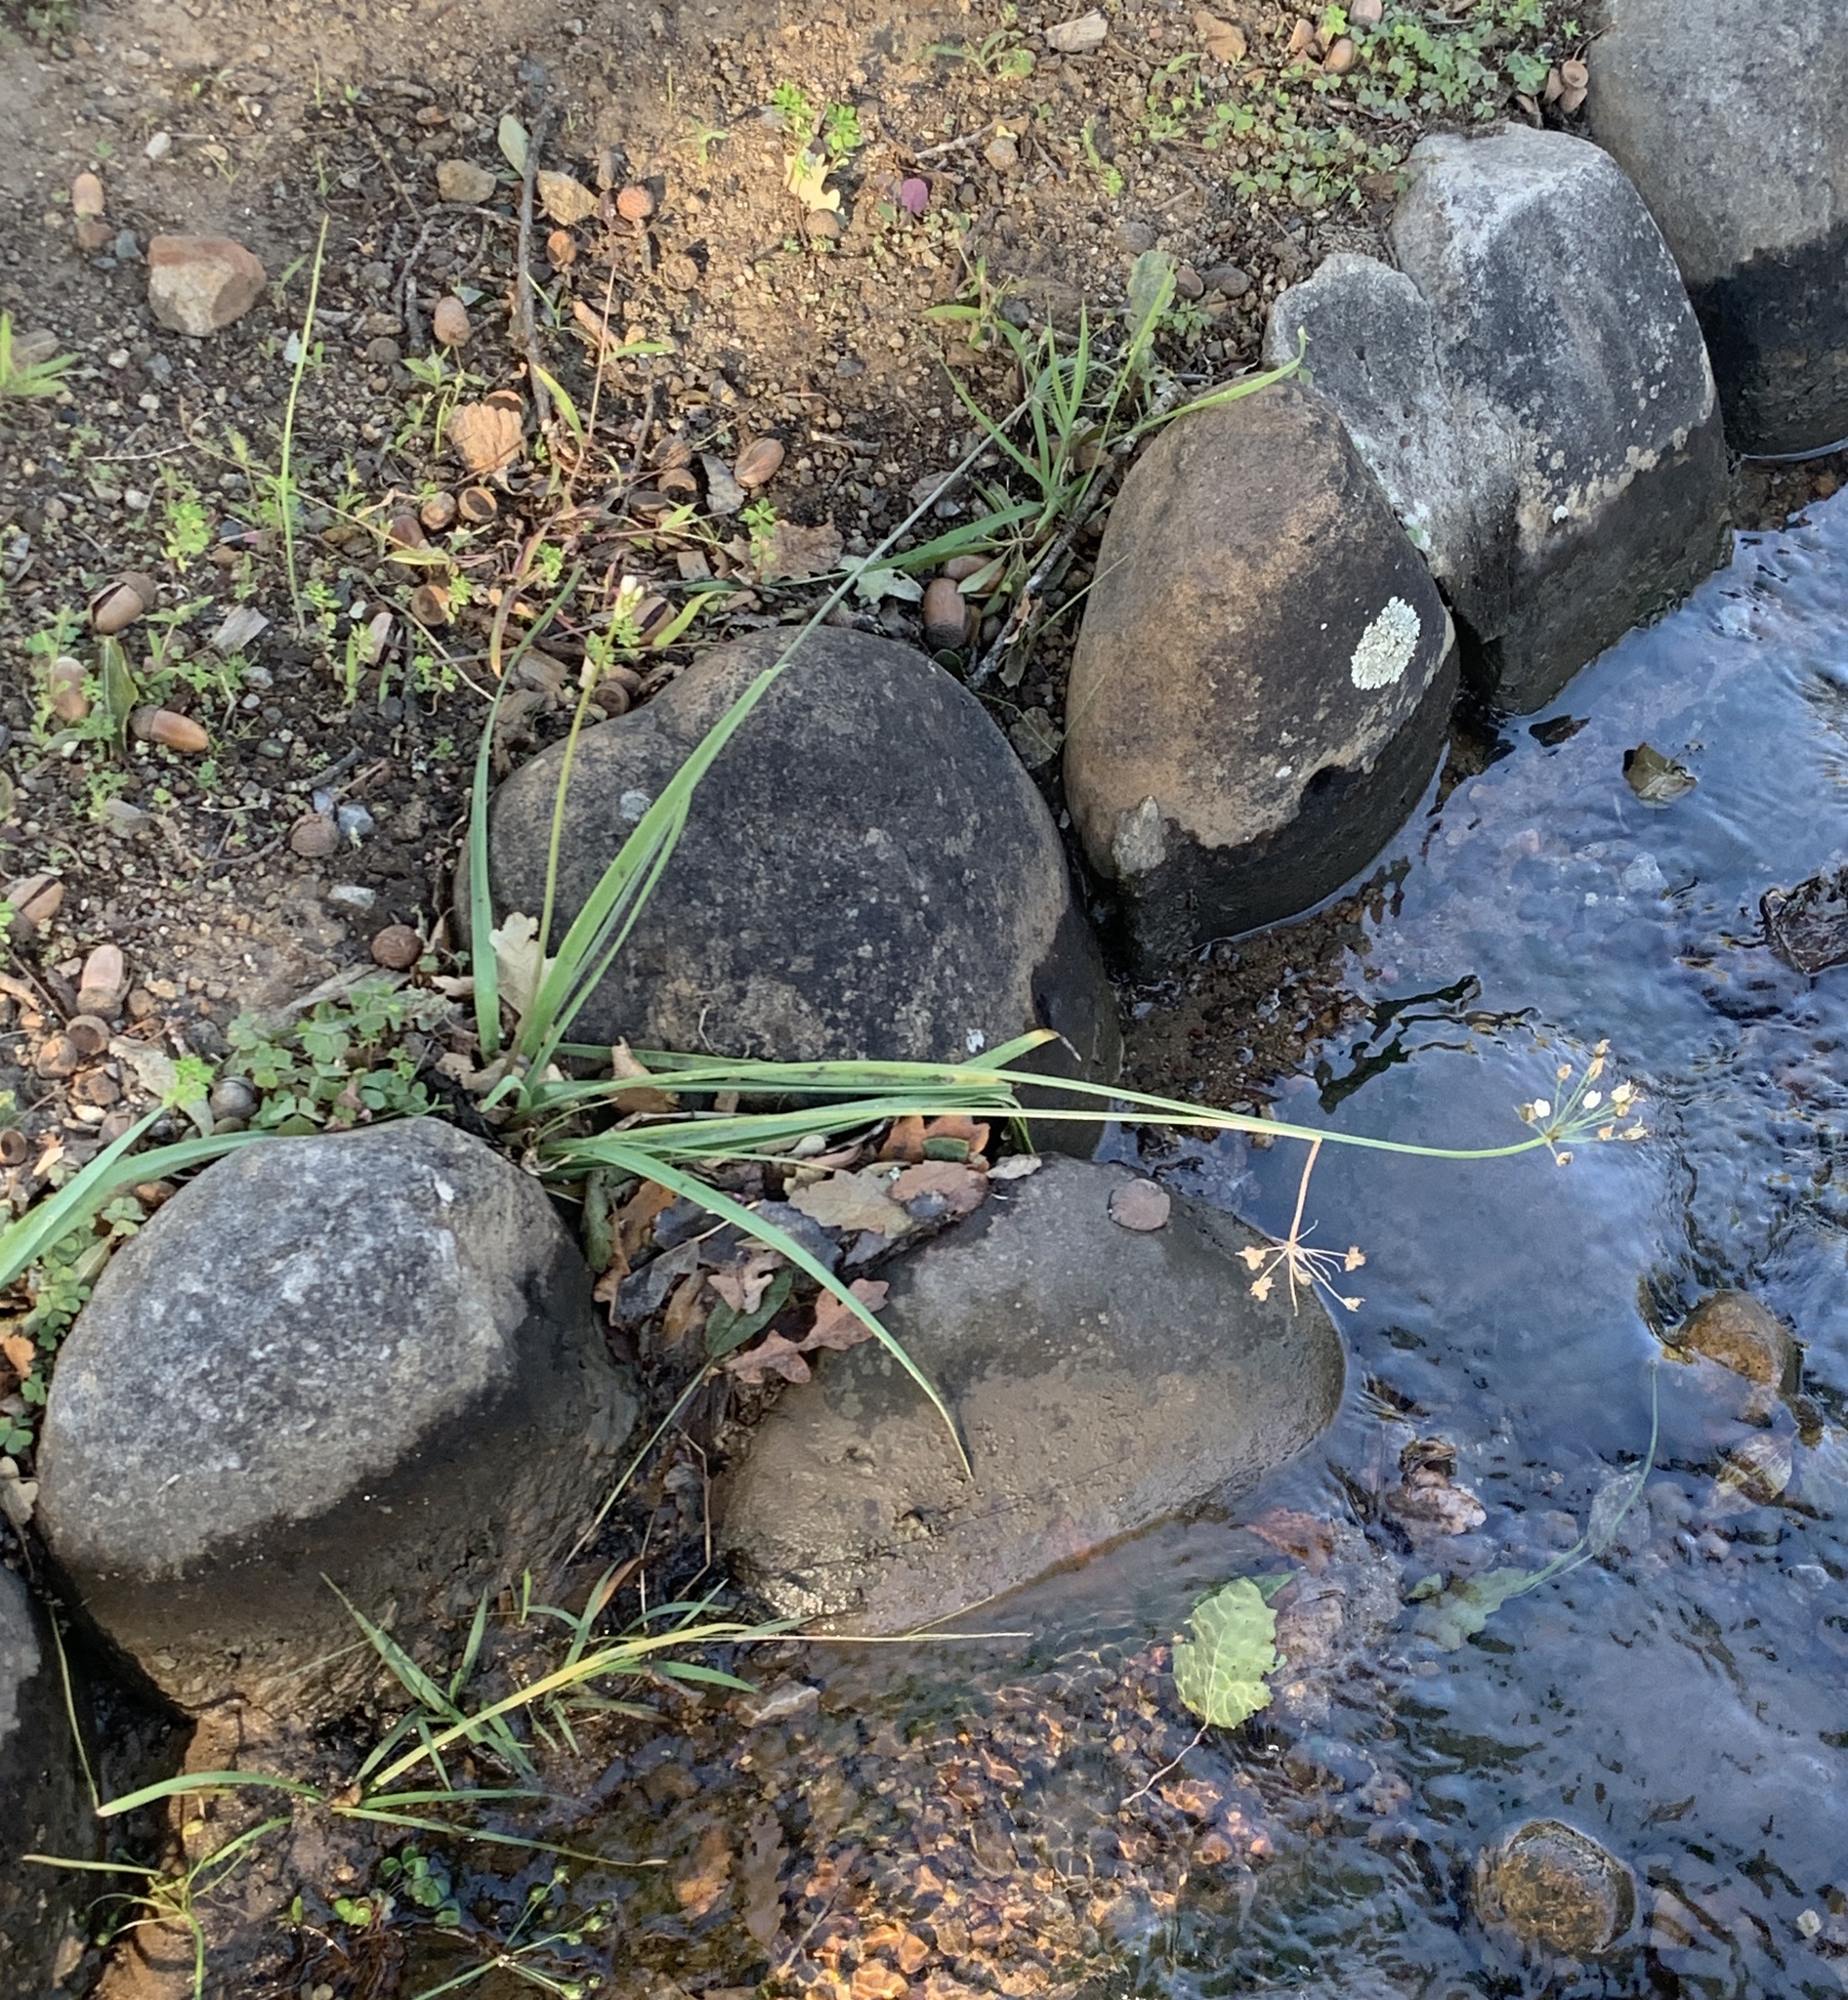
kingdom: Plantae
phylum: Tracheophyta
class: Liliopsida
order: Asparagales
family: Amaryllidaceae
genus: Nothoscordum
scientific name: Nothoscordum gracile
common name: Slender false garlic
